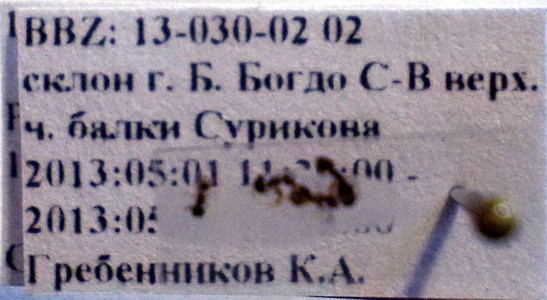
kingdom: Animalia
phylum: Arthropoda
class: Insecta
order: Hymenoptera
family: Formicidae
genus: Plagiolepis
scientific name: Plagiolepis pallescens
